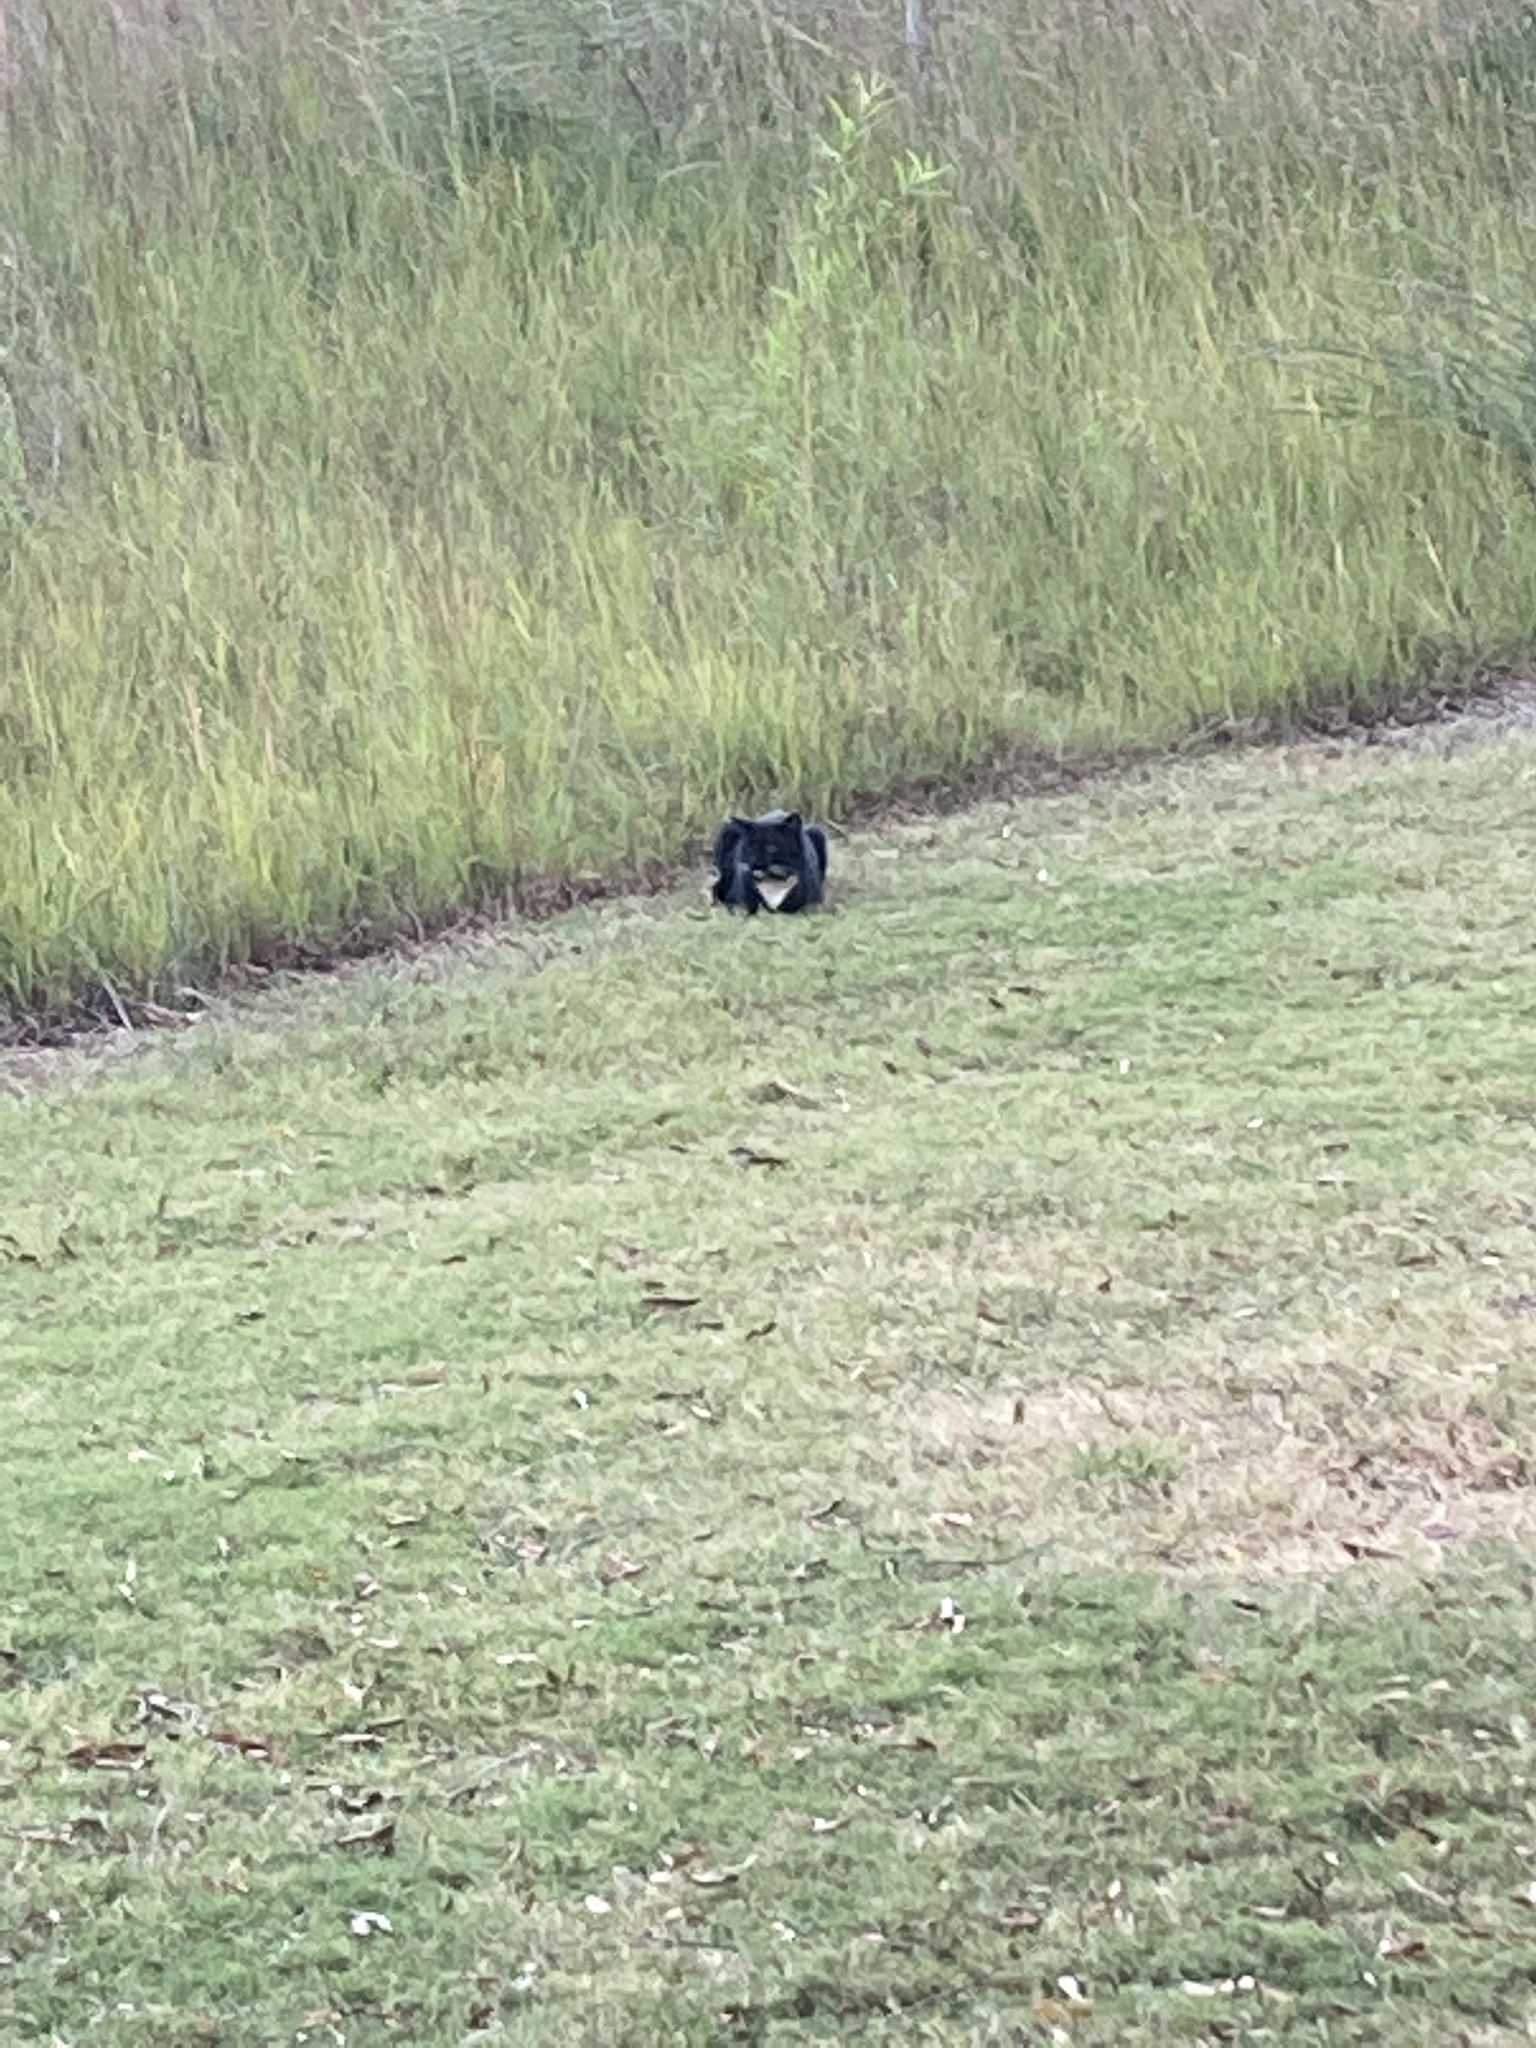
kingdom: Animalia
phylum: Chordata
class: Mammalia
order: Carnivora
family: Felidae
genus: Felis
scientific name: Felis catus
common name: Domestic cat
